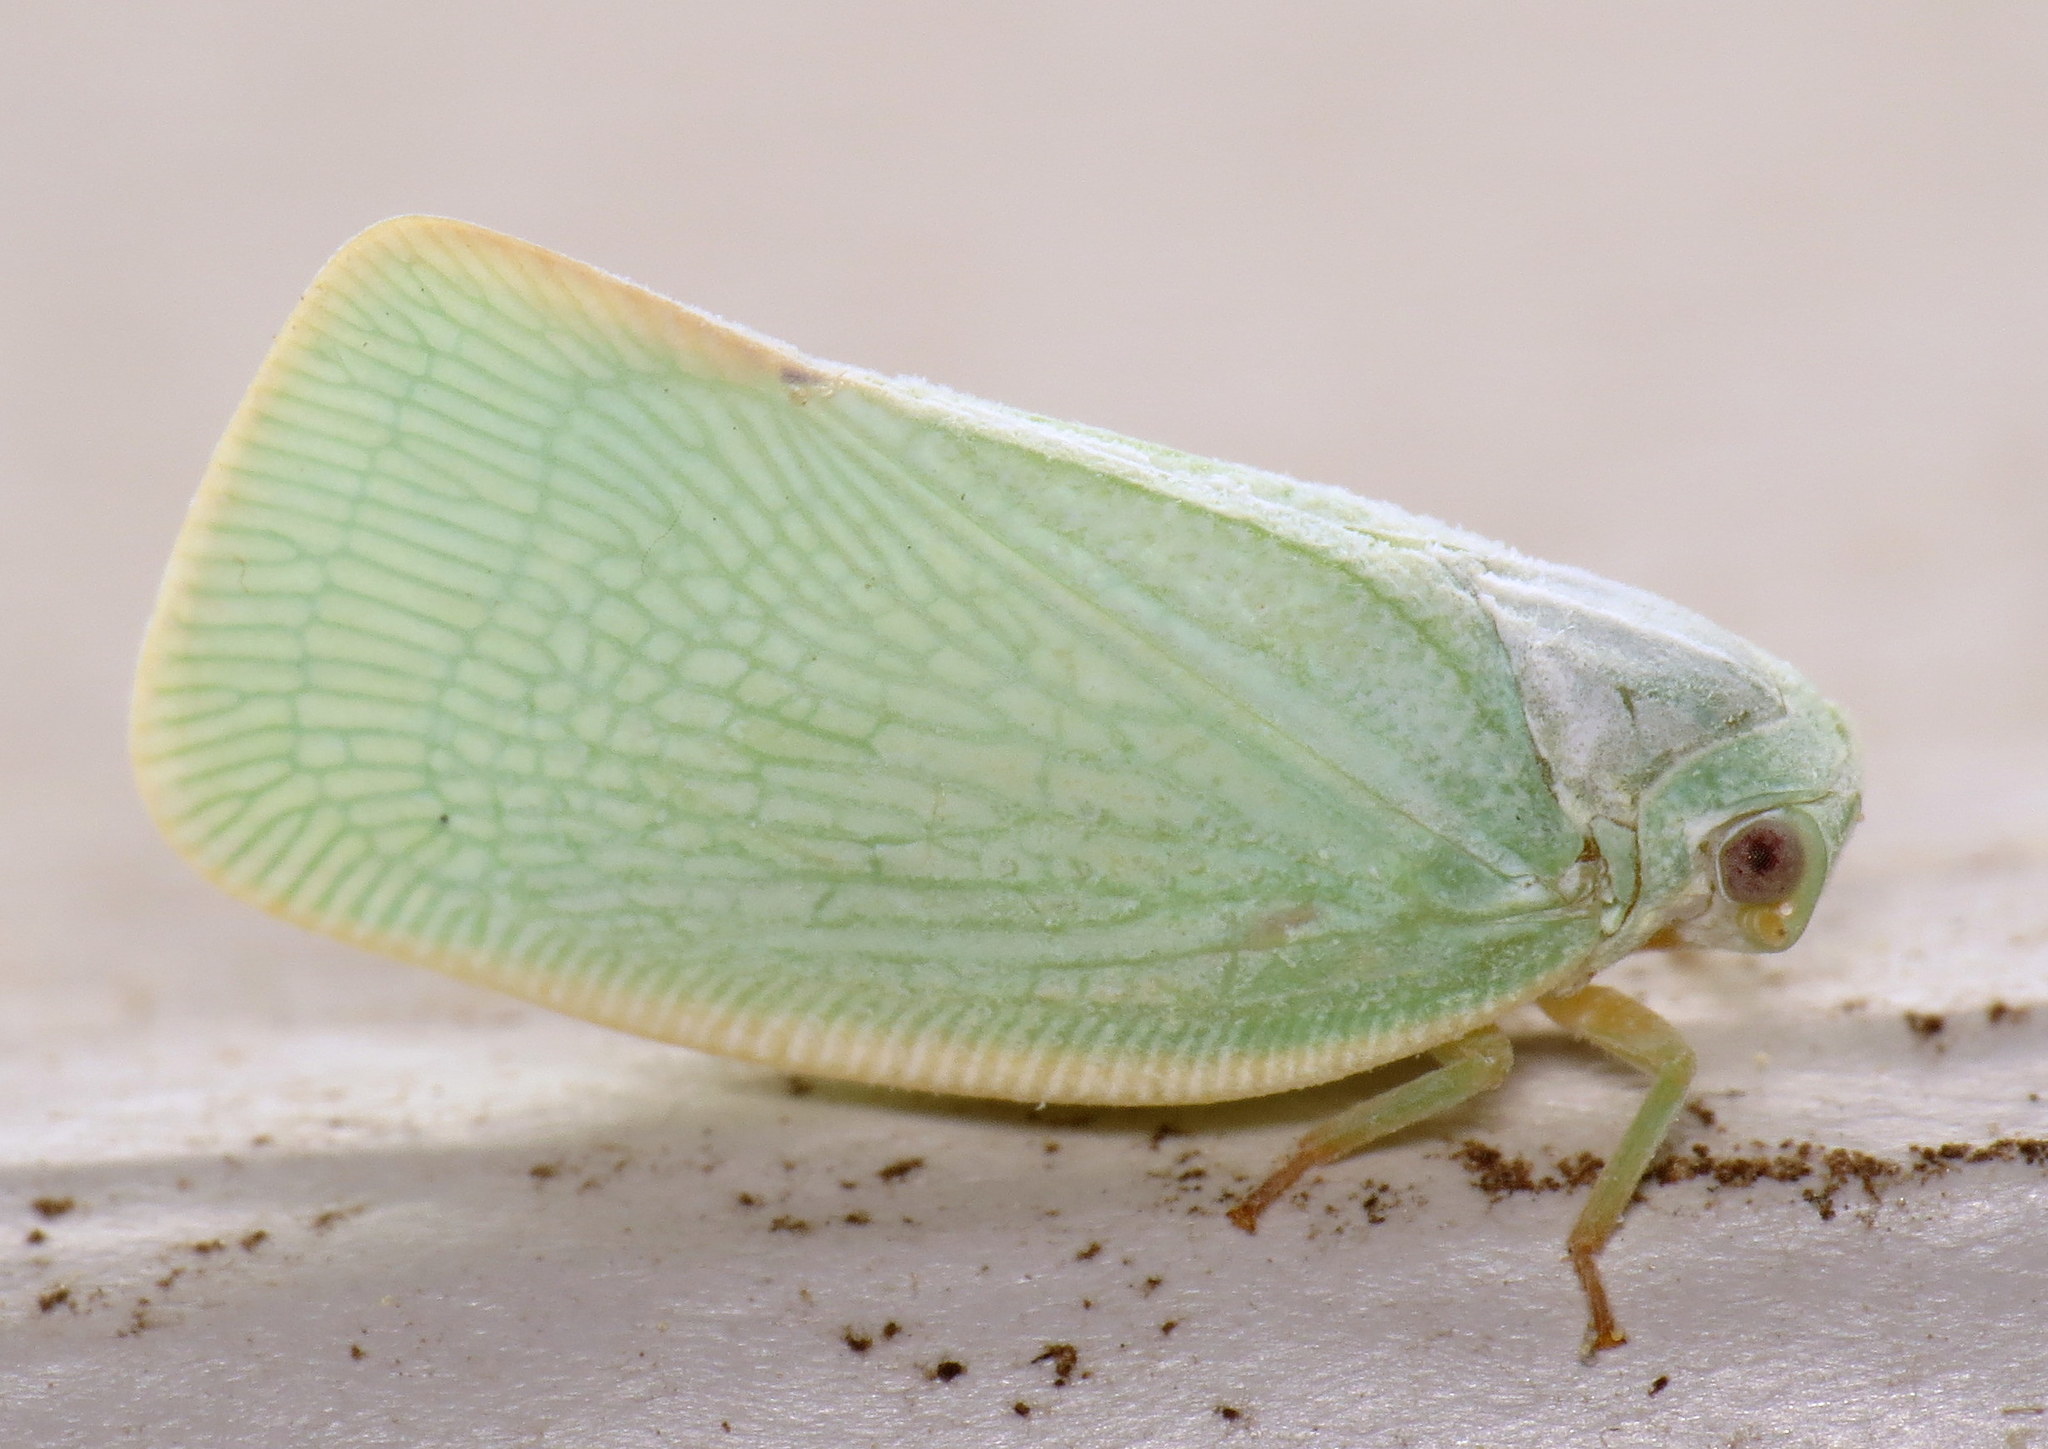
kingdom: Animalia
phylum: Arthropoda
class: Insecta
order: Hemiptera
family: Flatidae
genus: Flatormenis
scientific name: Flatormenis proxima
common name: Northern flatid planthopper
